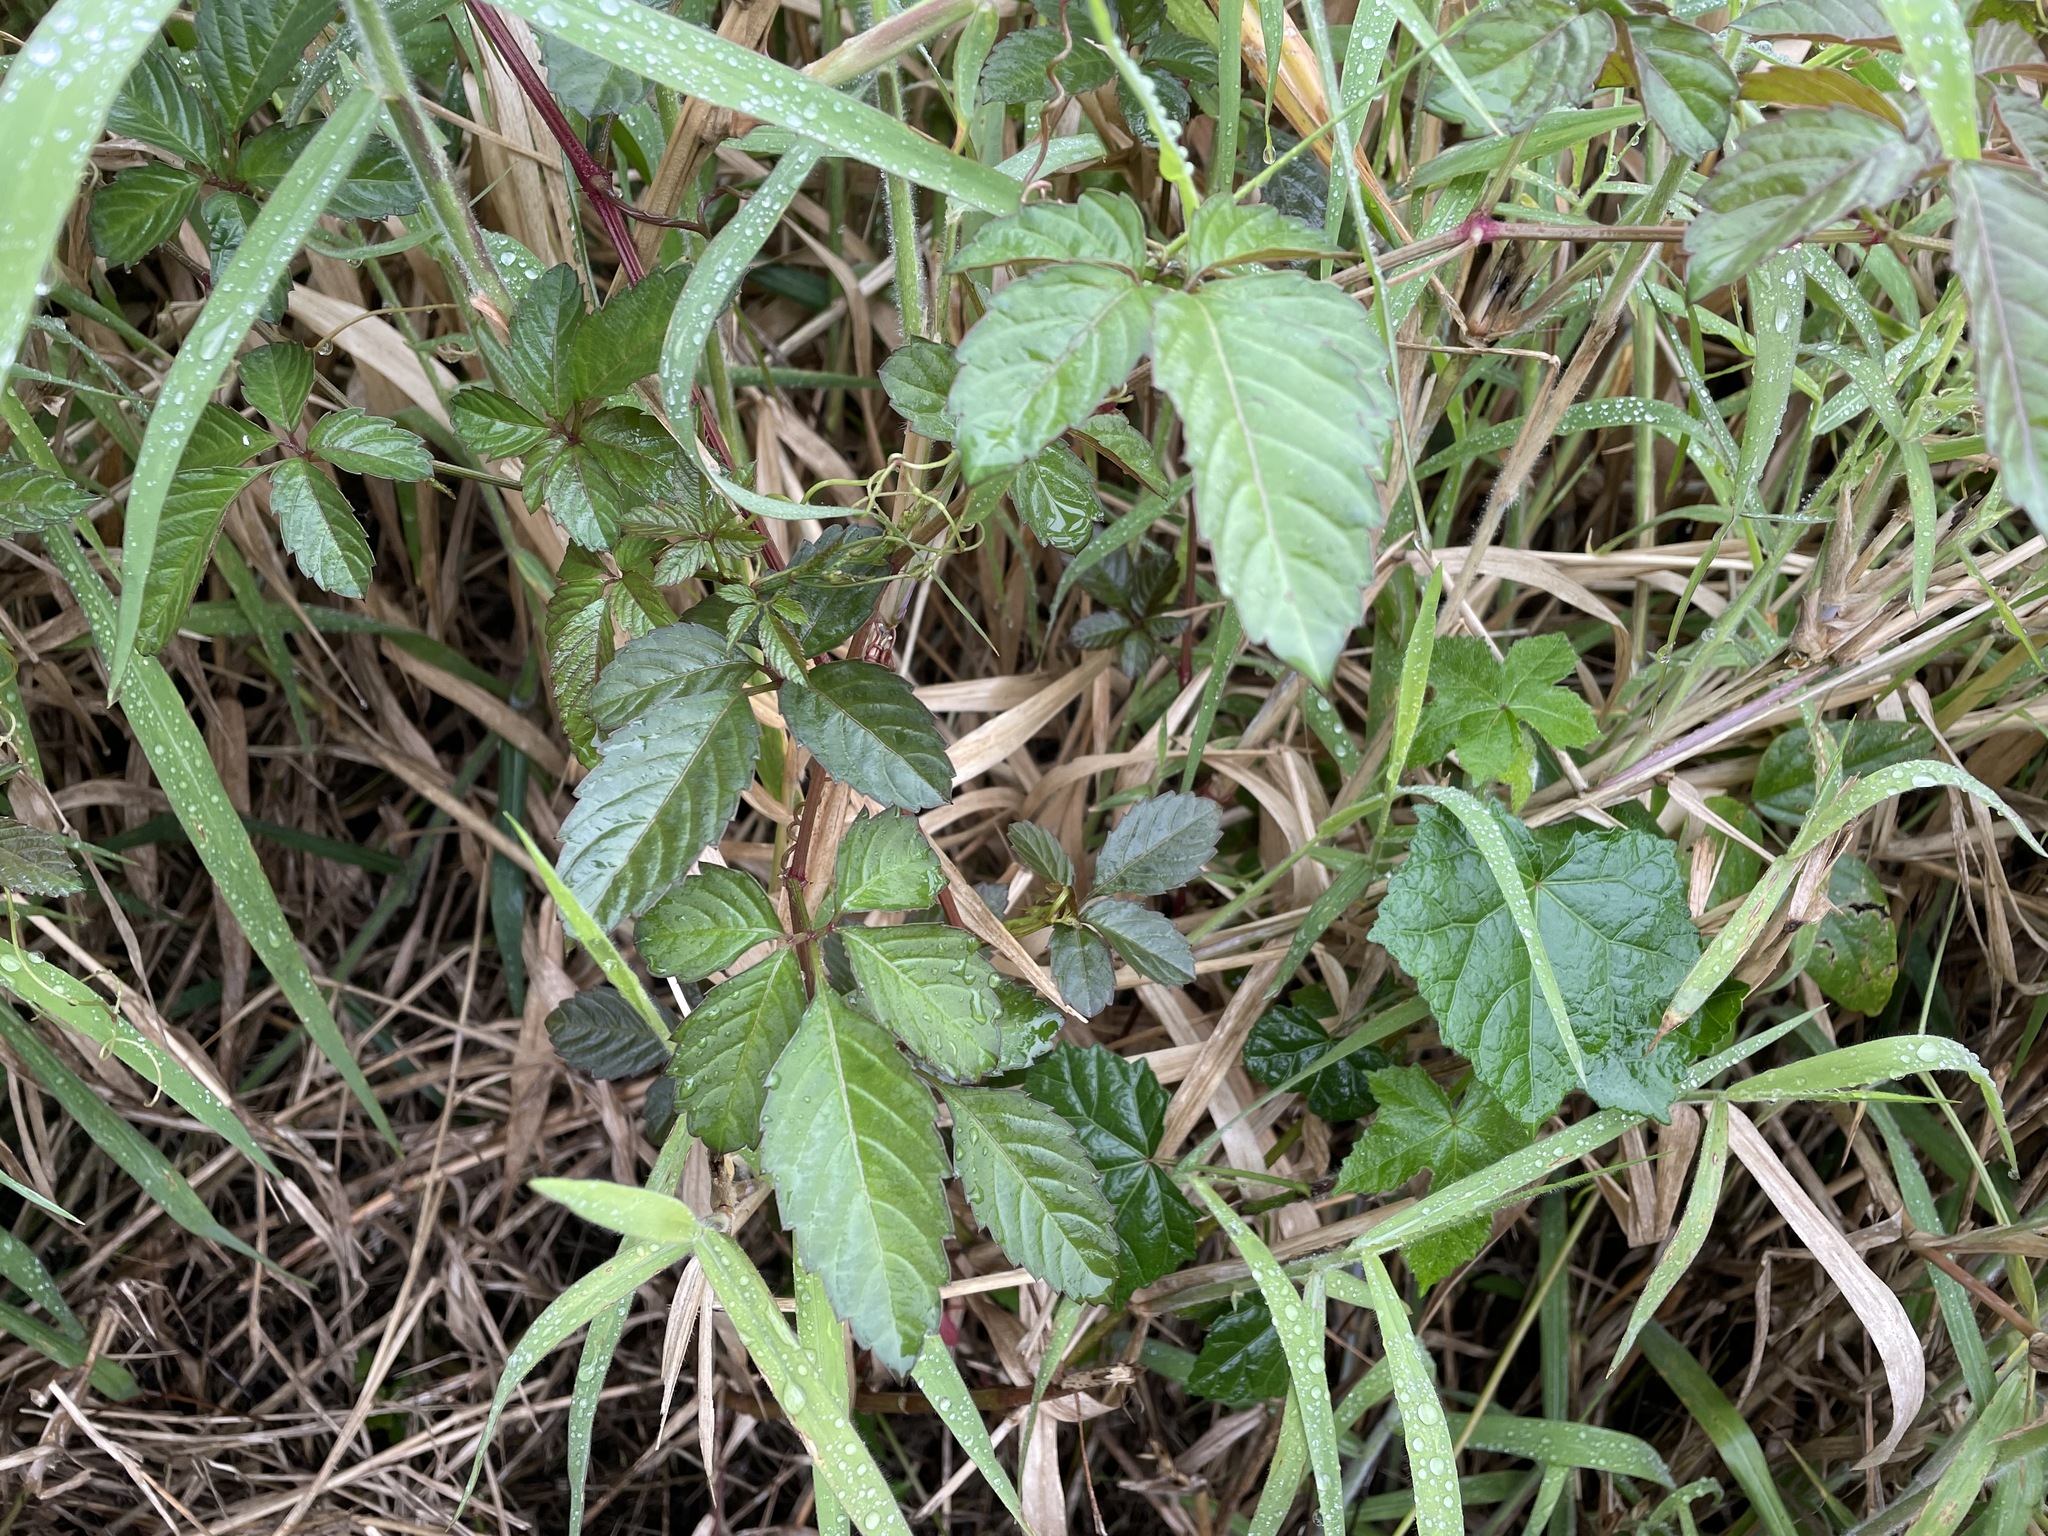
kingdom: Plantae
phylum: Tracheophyta
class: Magnoliopsida
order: Vitales
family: Vitaceae
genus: Causonis
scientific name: Causonis japonica
